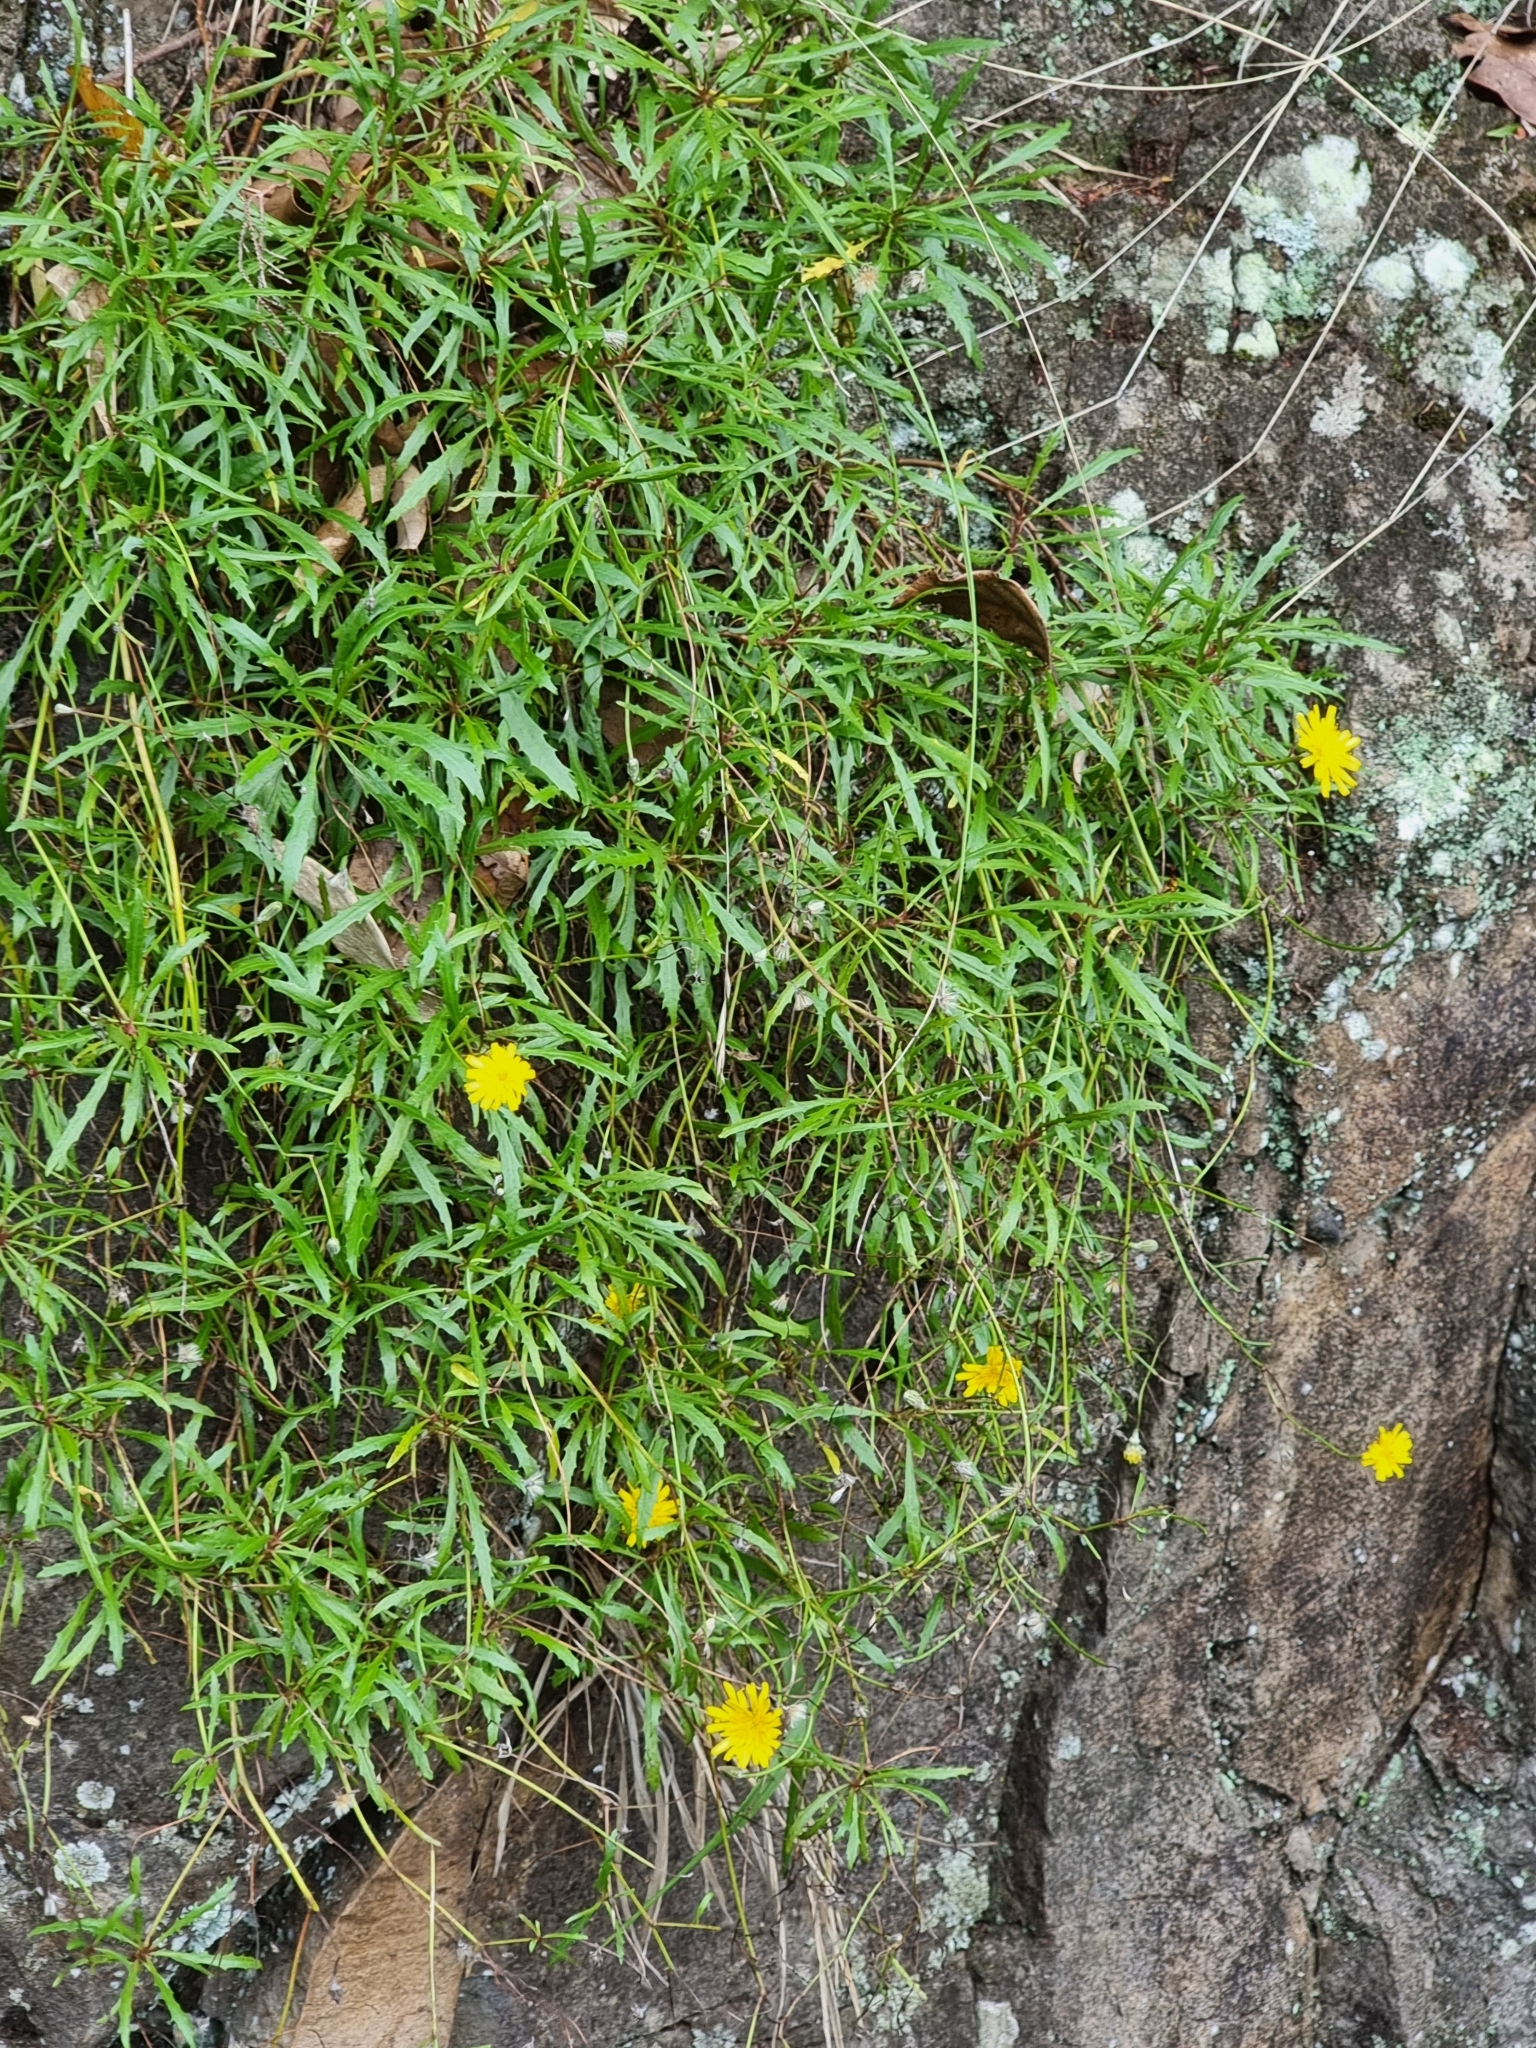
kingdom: Plantae
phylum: Tracheophyta
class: Magnoliopsida
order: Asterales
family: Asteraceae
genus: Tolpis
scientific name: Tolpis succulenta
